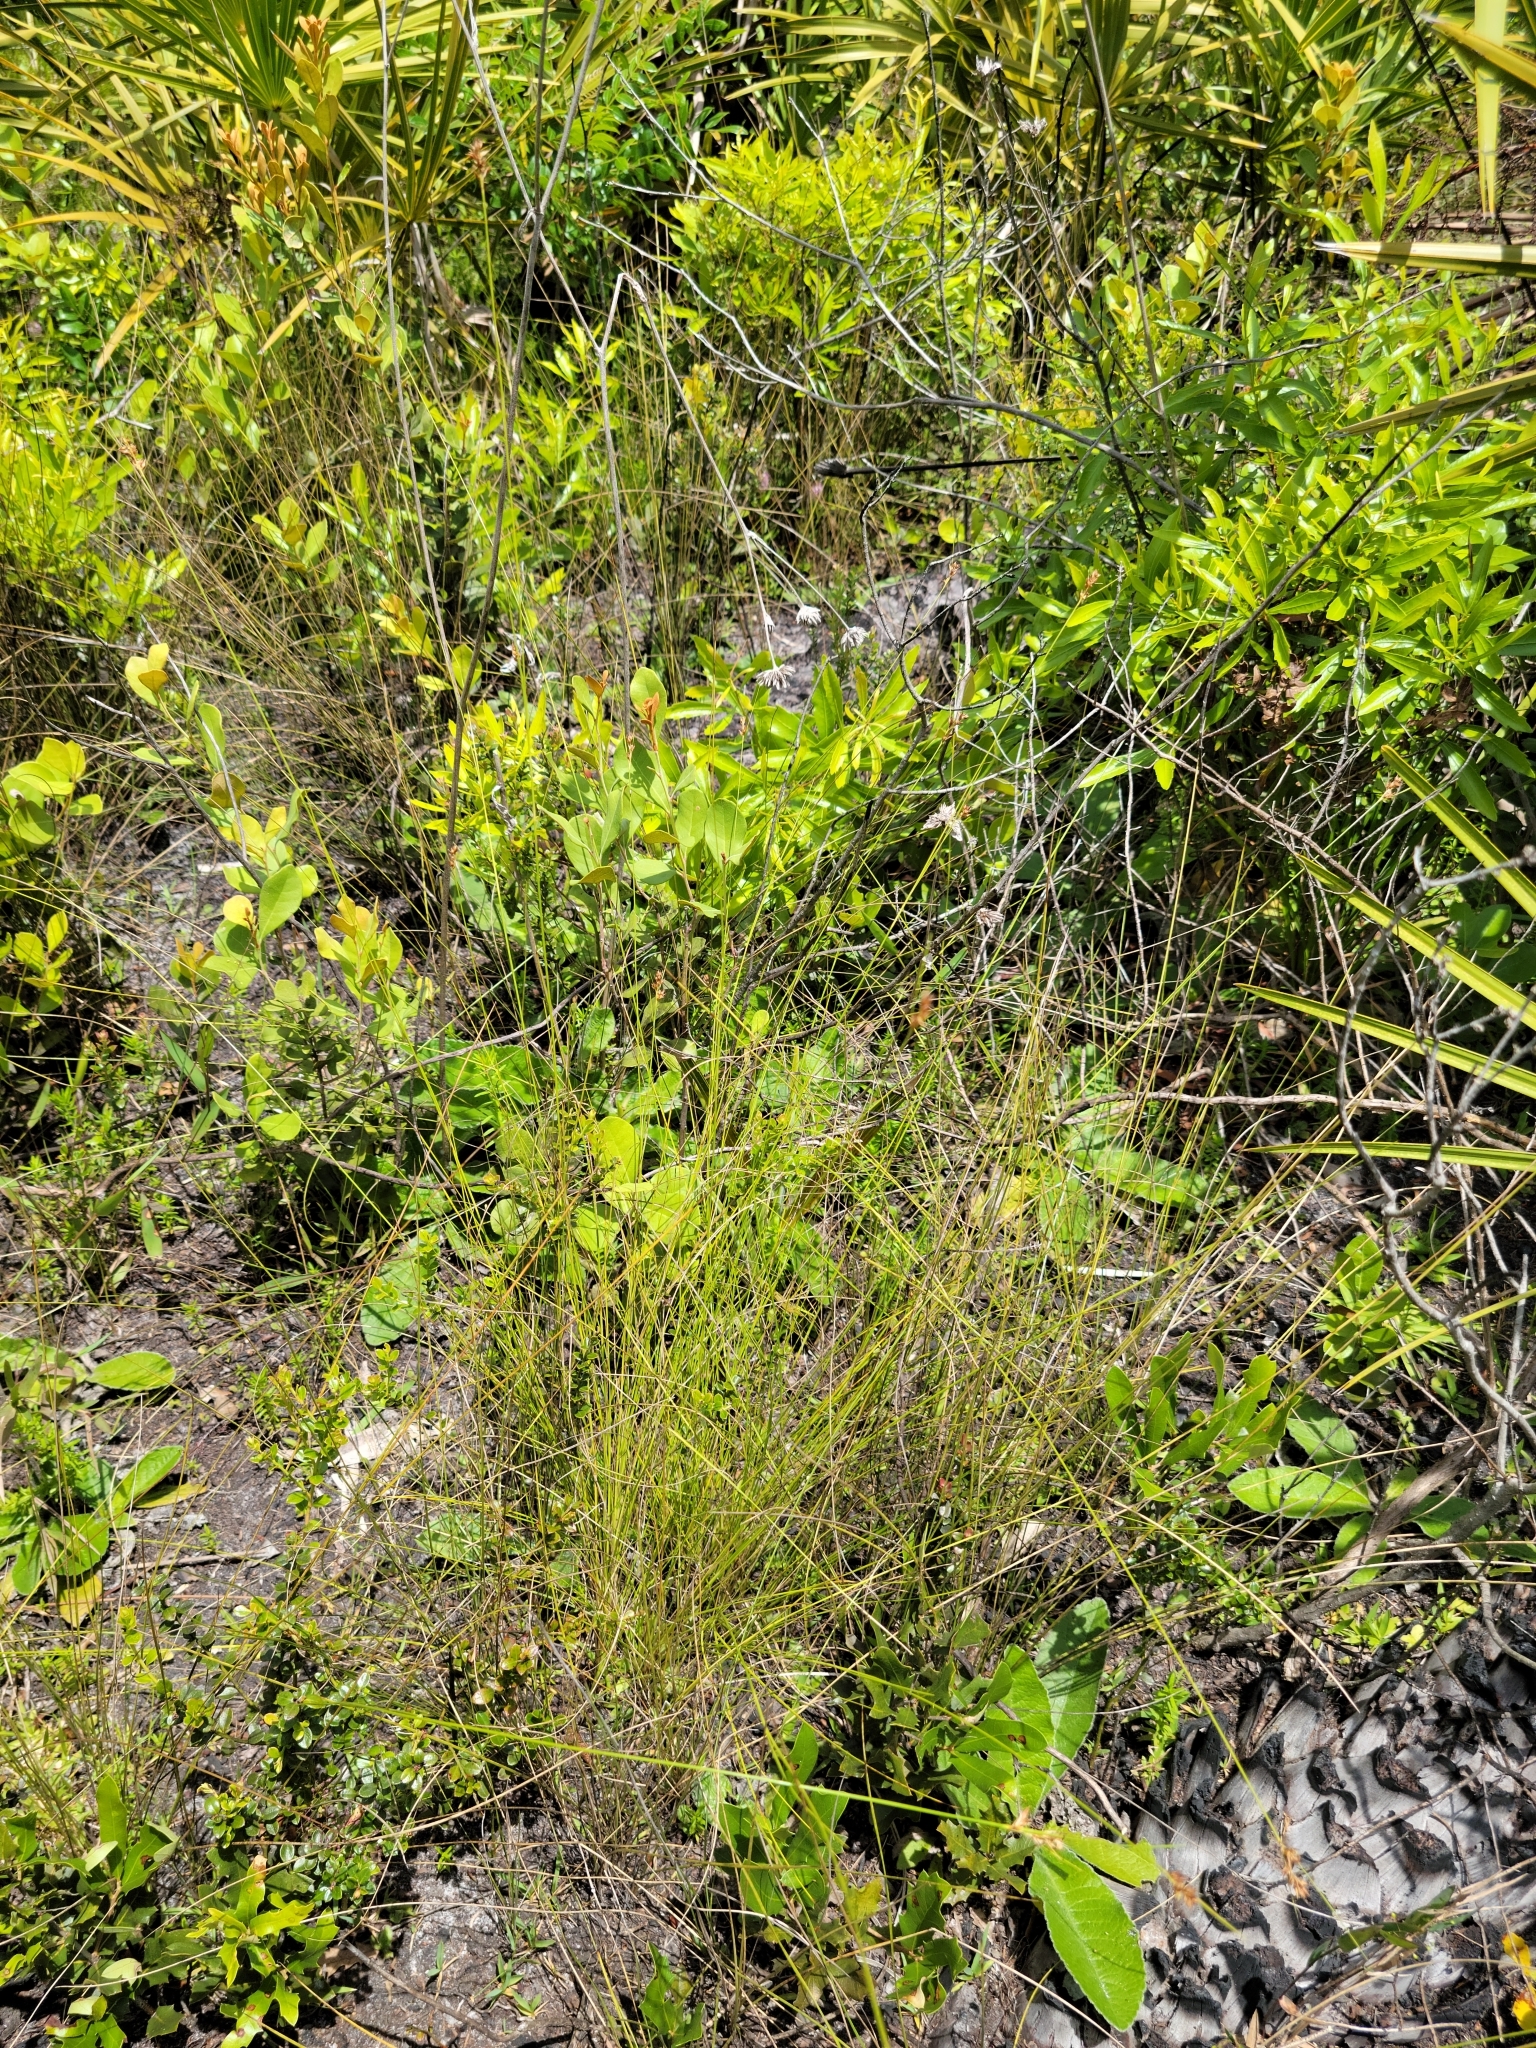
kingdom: Plantae
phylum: Tracheophyta
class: Liliopsida
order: Poales
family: Cyperaceae
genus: Rhynchospora
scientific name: Rhynchospora plumosa
